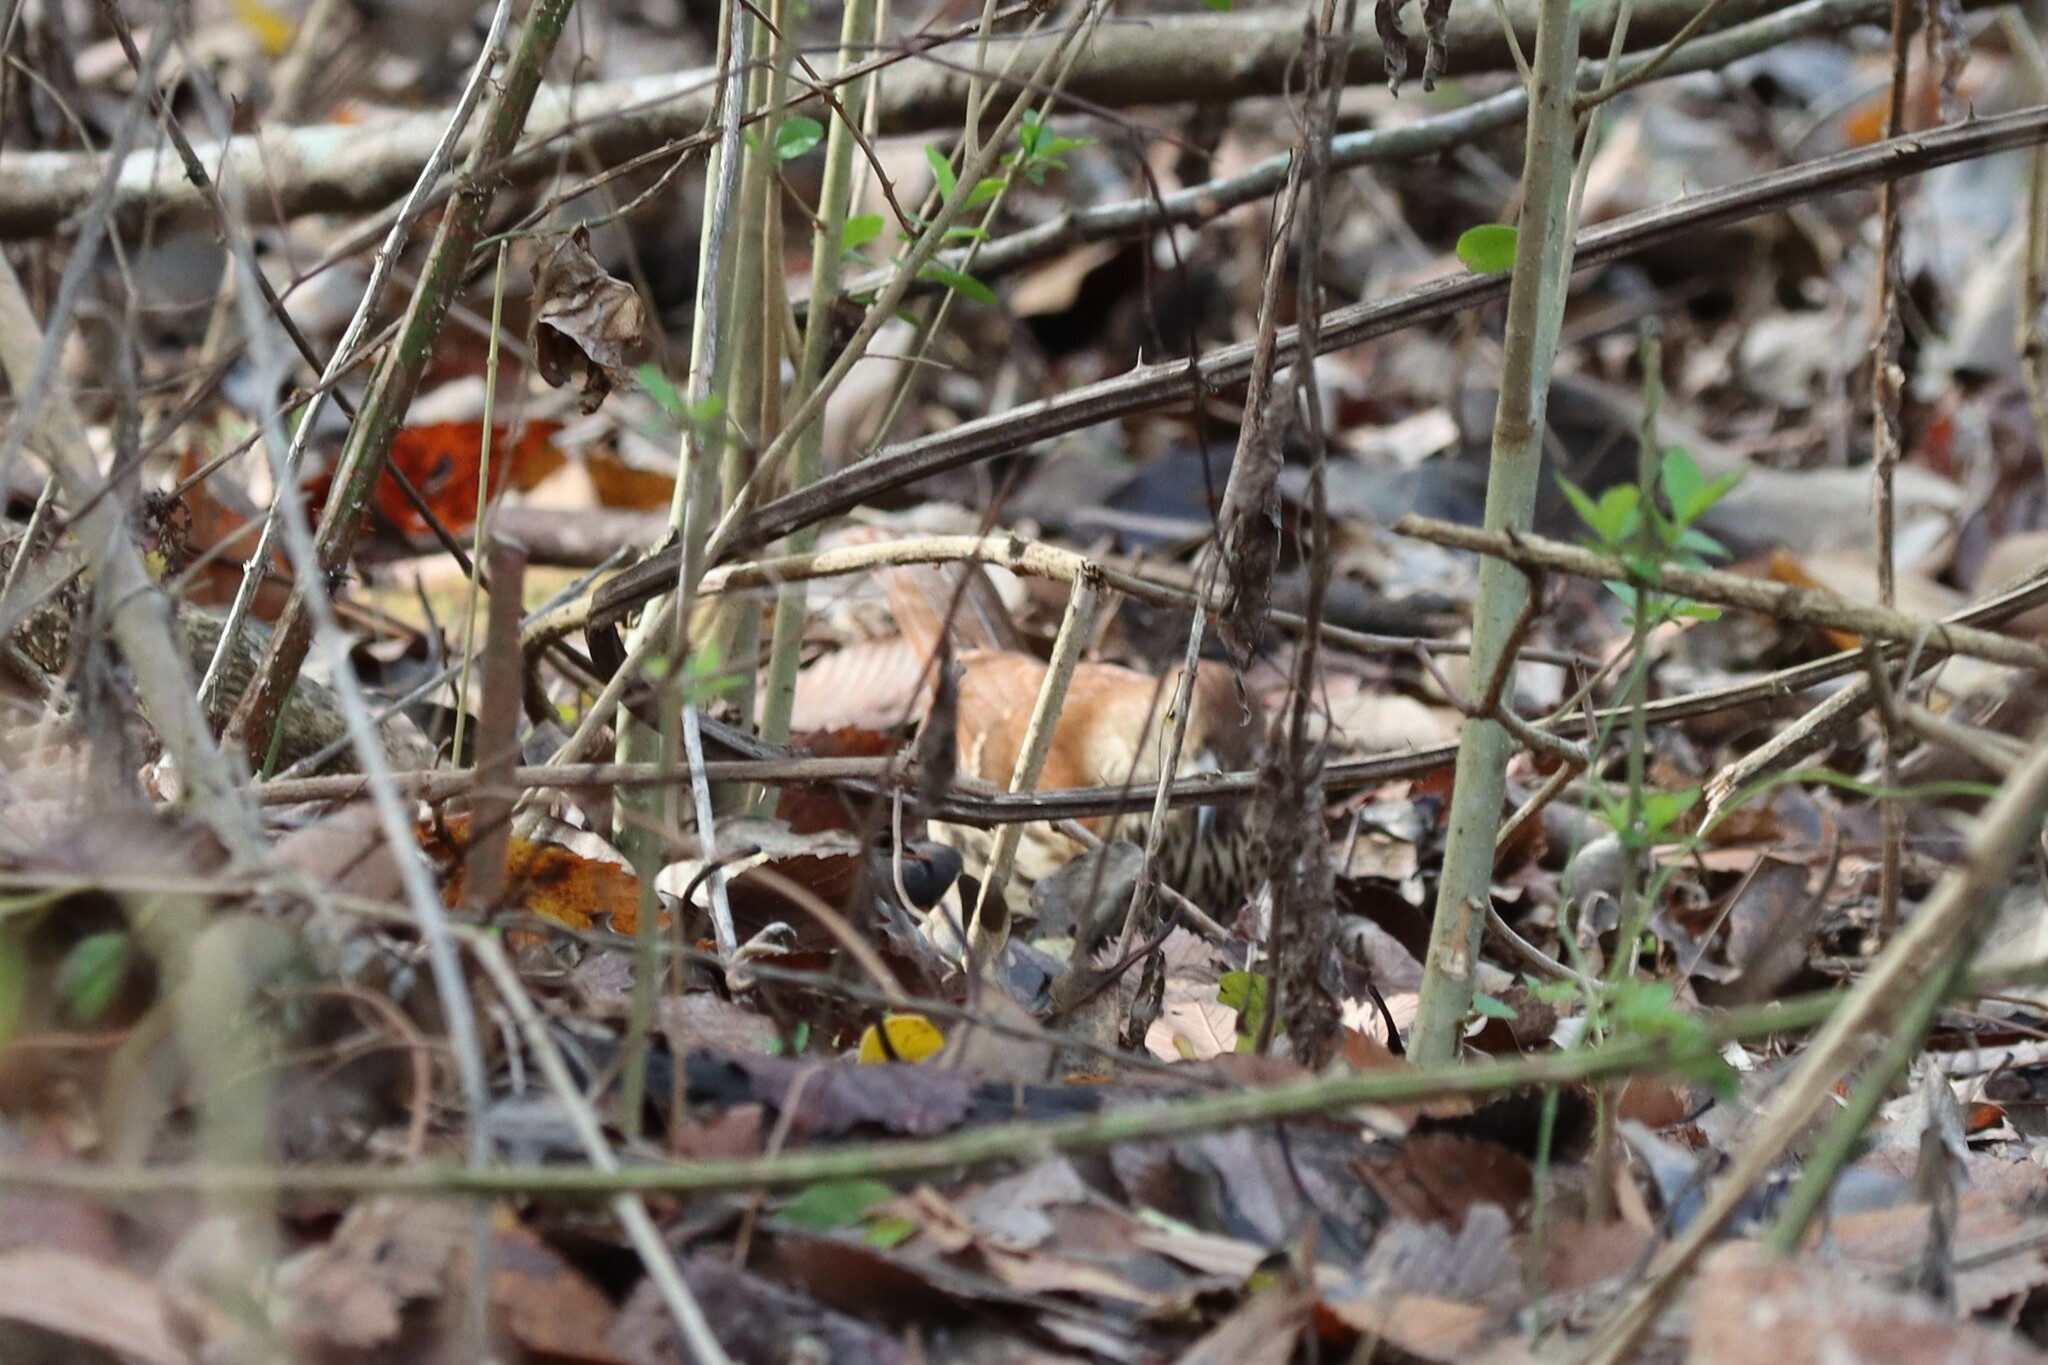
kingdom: Animalia
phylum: Chordata
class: Aves
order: Passeriformes
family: Mimidae
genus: Toxostoma
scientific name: Toxostoma rufum
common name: Brown thrasher
